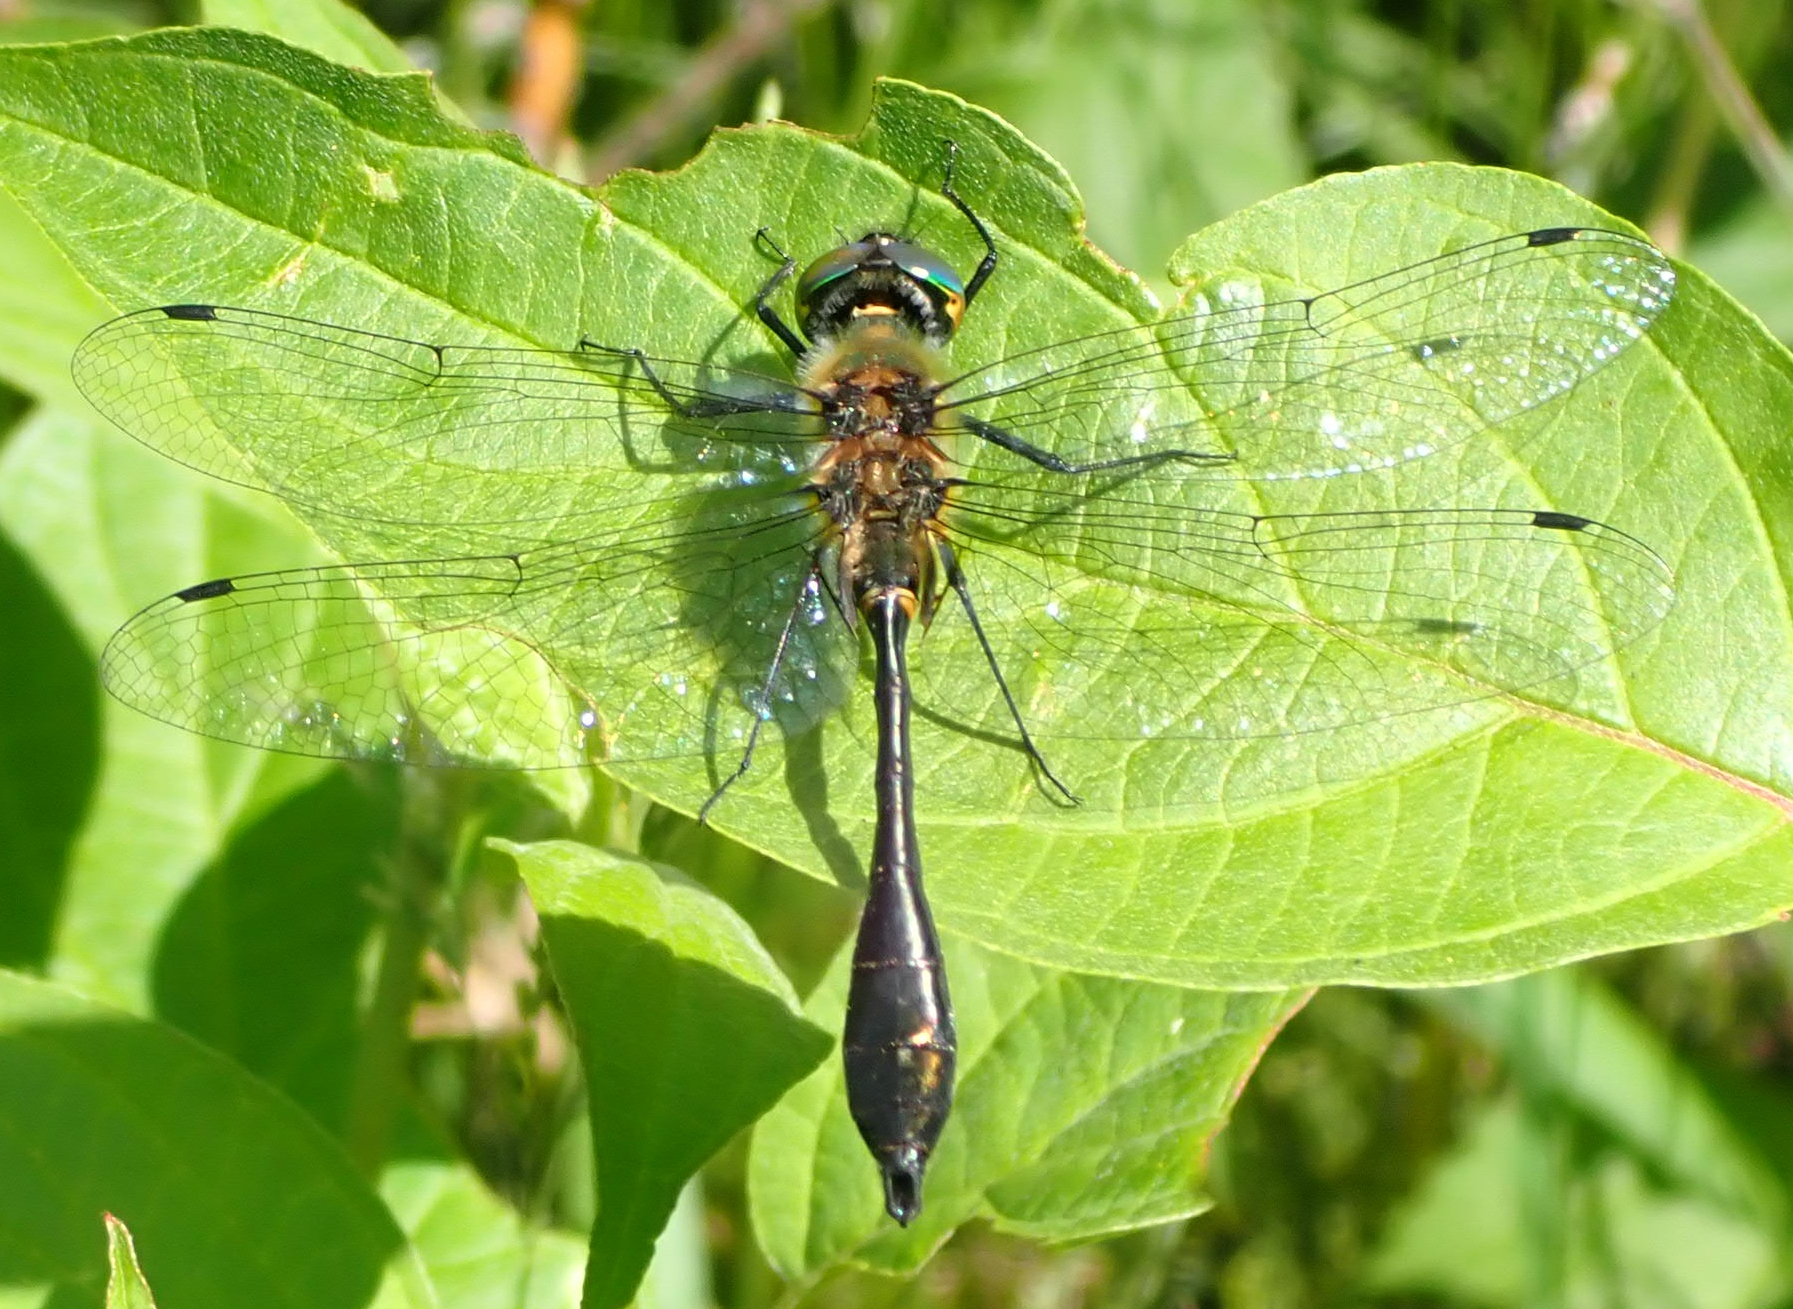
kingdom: Animalia
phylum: Arthropoda
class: Insecta
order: Odonata
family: Corduliidae
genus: Dorocordulia
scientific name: Dorocordulia libera
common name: Racket-tailed emerald
